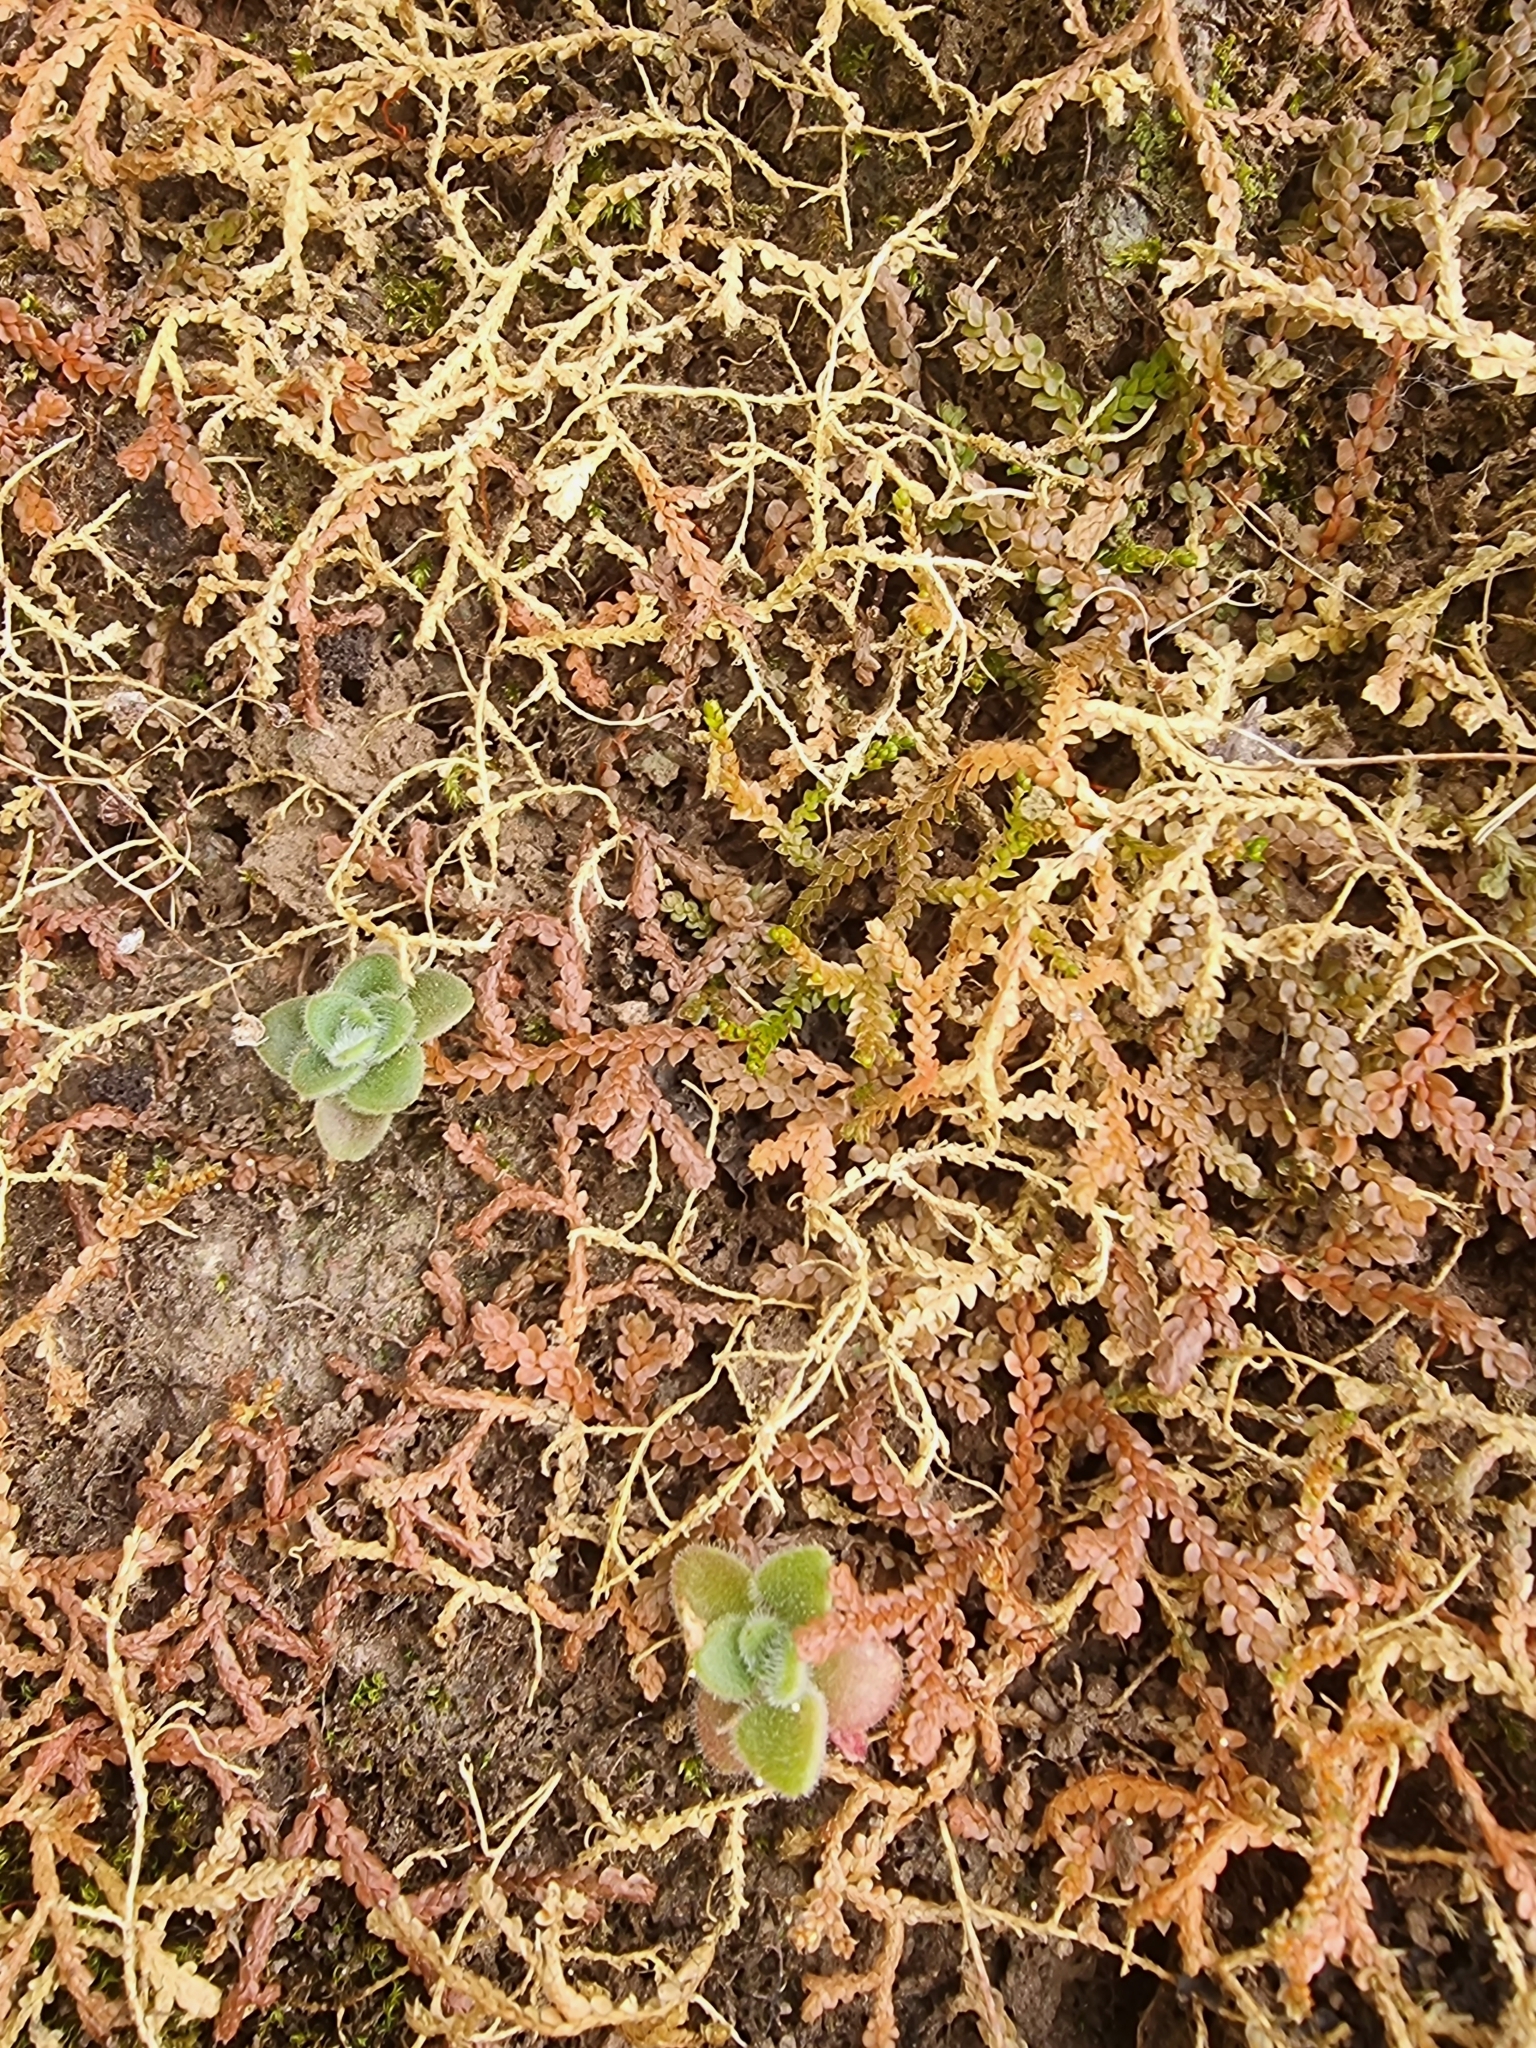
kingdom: Plantae
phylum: Tracheophyta
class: Lycopodiopsida
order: Selaginellales
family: Selaginellaceae
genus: Selaginella
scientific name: Selaginella denticulata
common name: Toothed-leaved clubmoss
